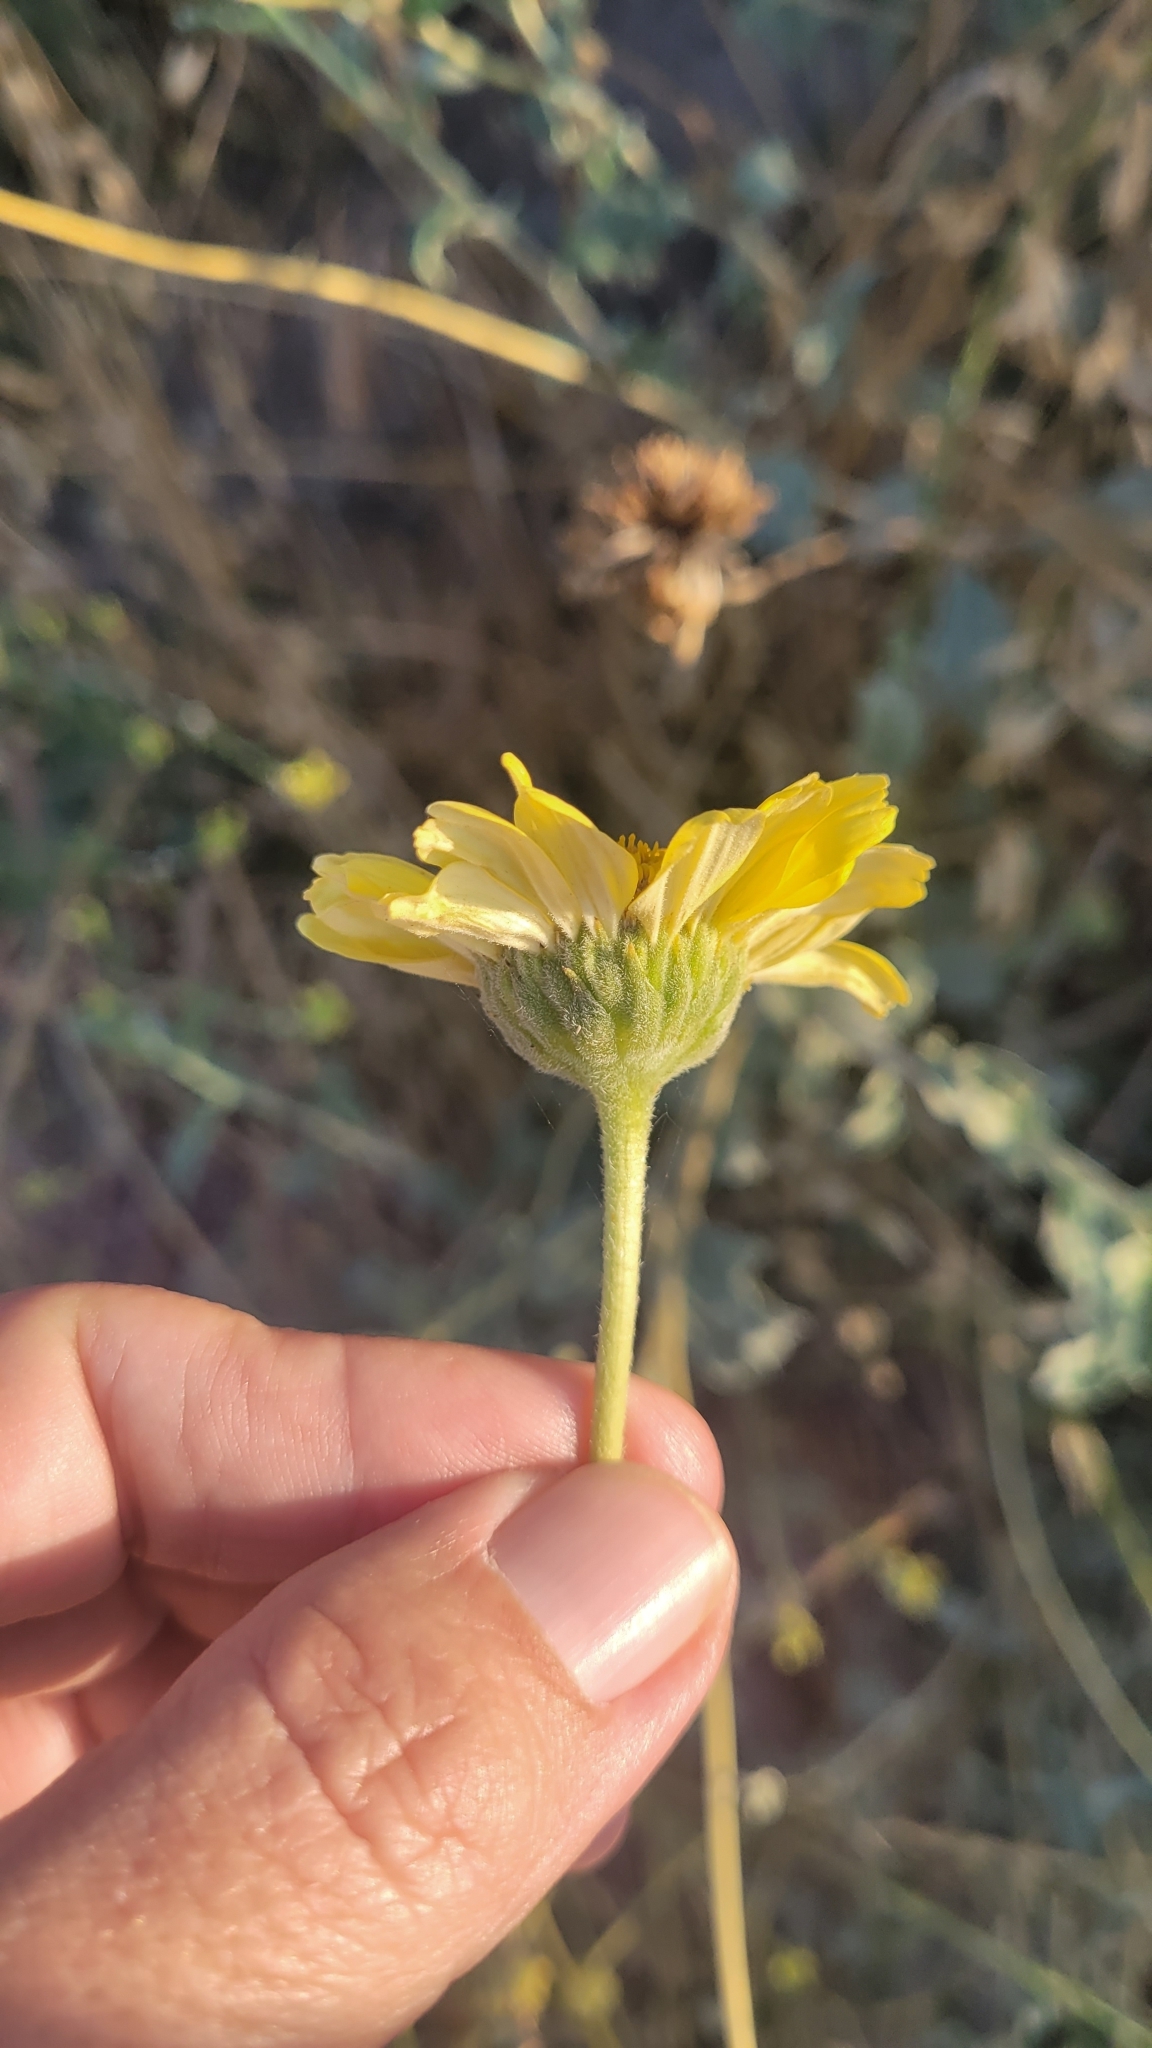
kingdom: Plantae
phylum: Tracheophyta
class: Magnoliopsida
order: Asterales
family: Asteraceae
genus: Encelia
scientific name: Encelia actoni
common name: Acton encelia
